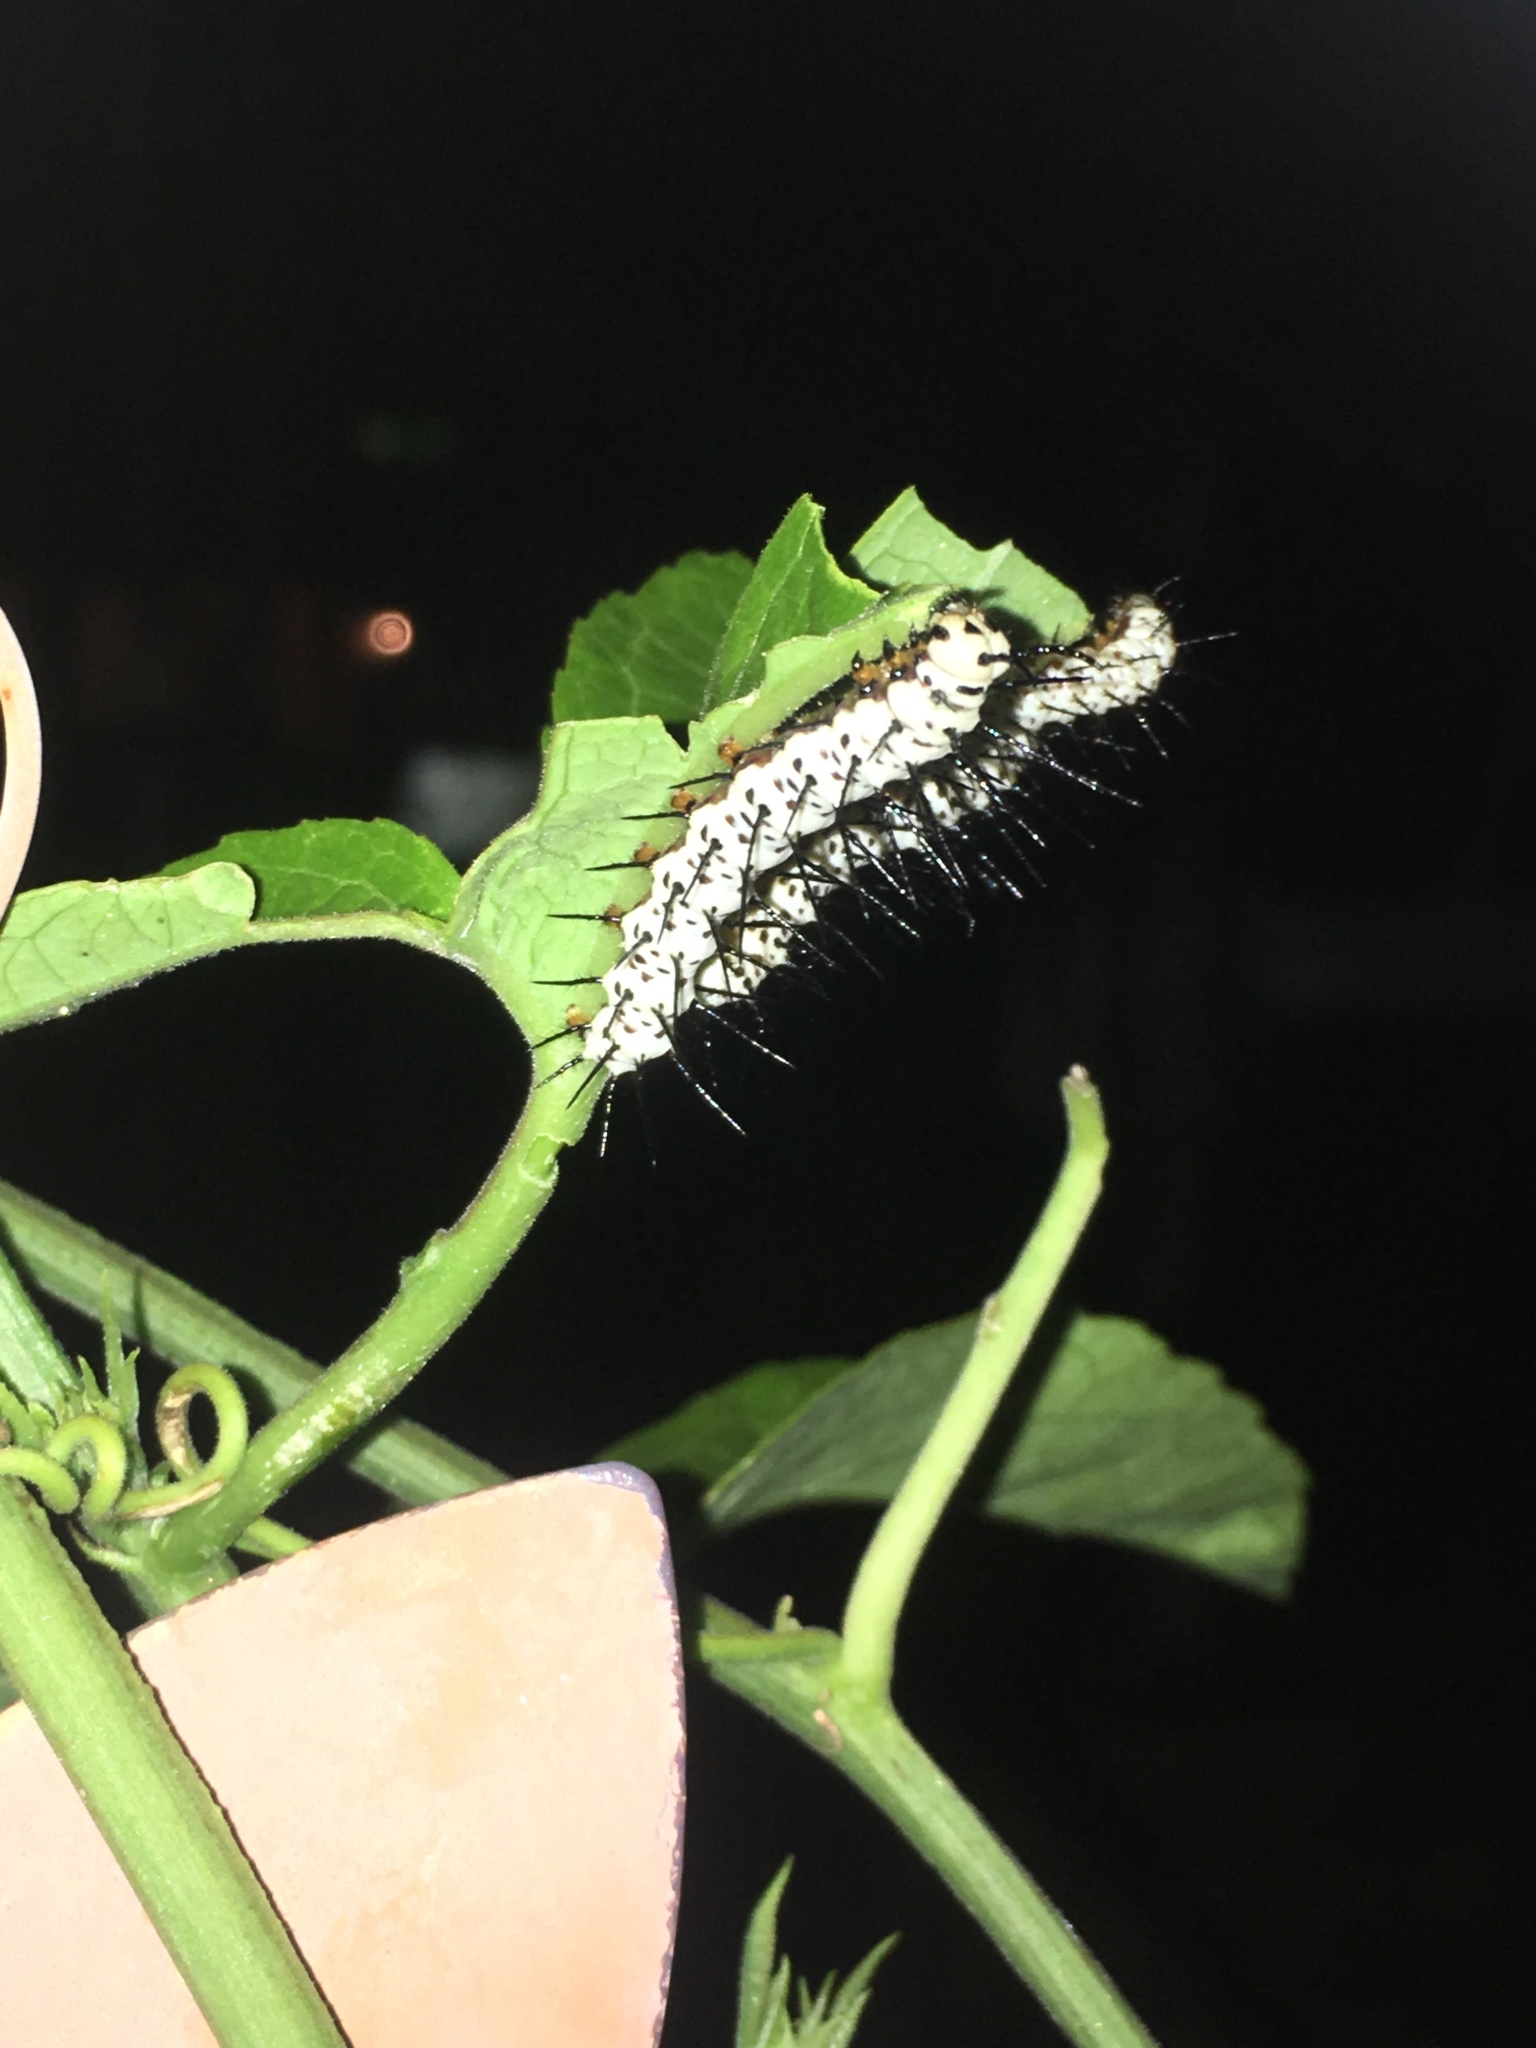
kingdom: Animalia
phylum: Arthropoda
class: Insecta
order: Lepidoptera
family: Nymphalidae
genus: Heliconius
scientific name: Heliconius charithonia
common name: Zebra long wing
